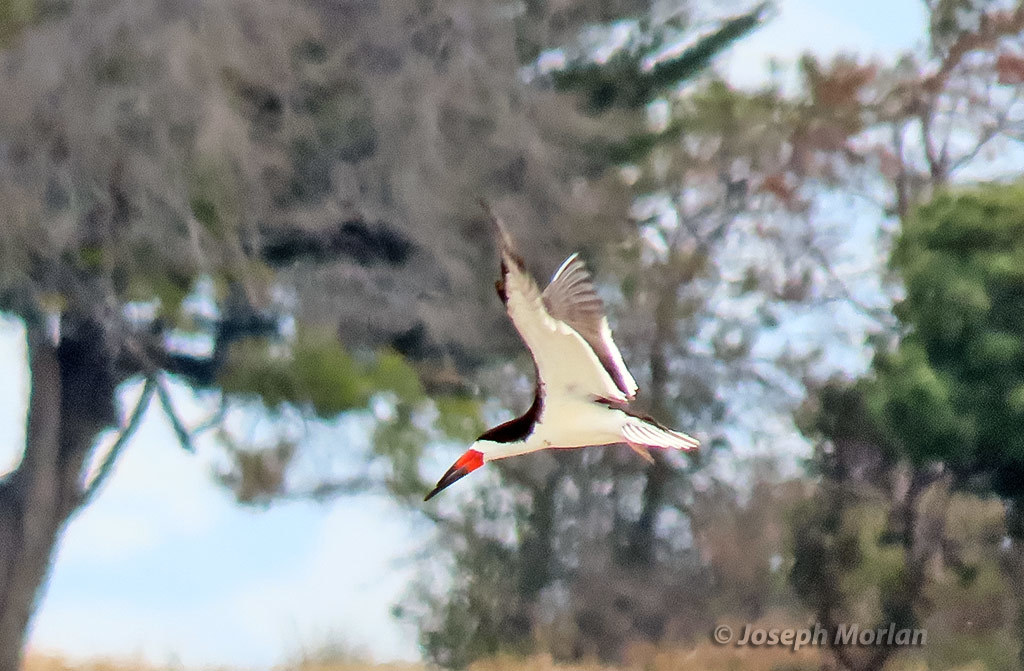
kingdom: Animalia
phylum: Chordata
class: Aves
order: Charadriiformes
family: Laridae
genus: Rynchops
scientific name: Rynchops niger
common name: Black skimmer
